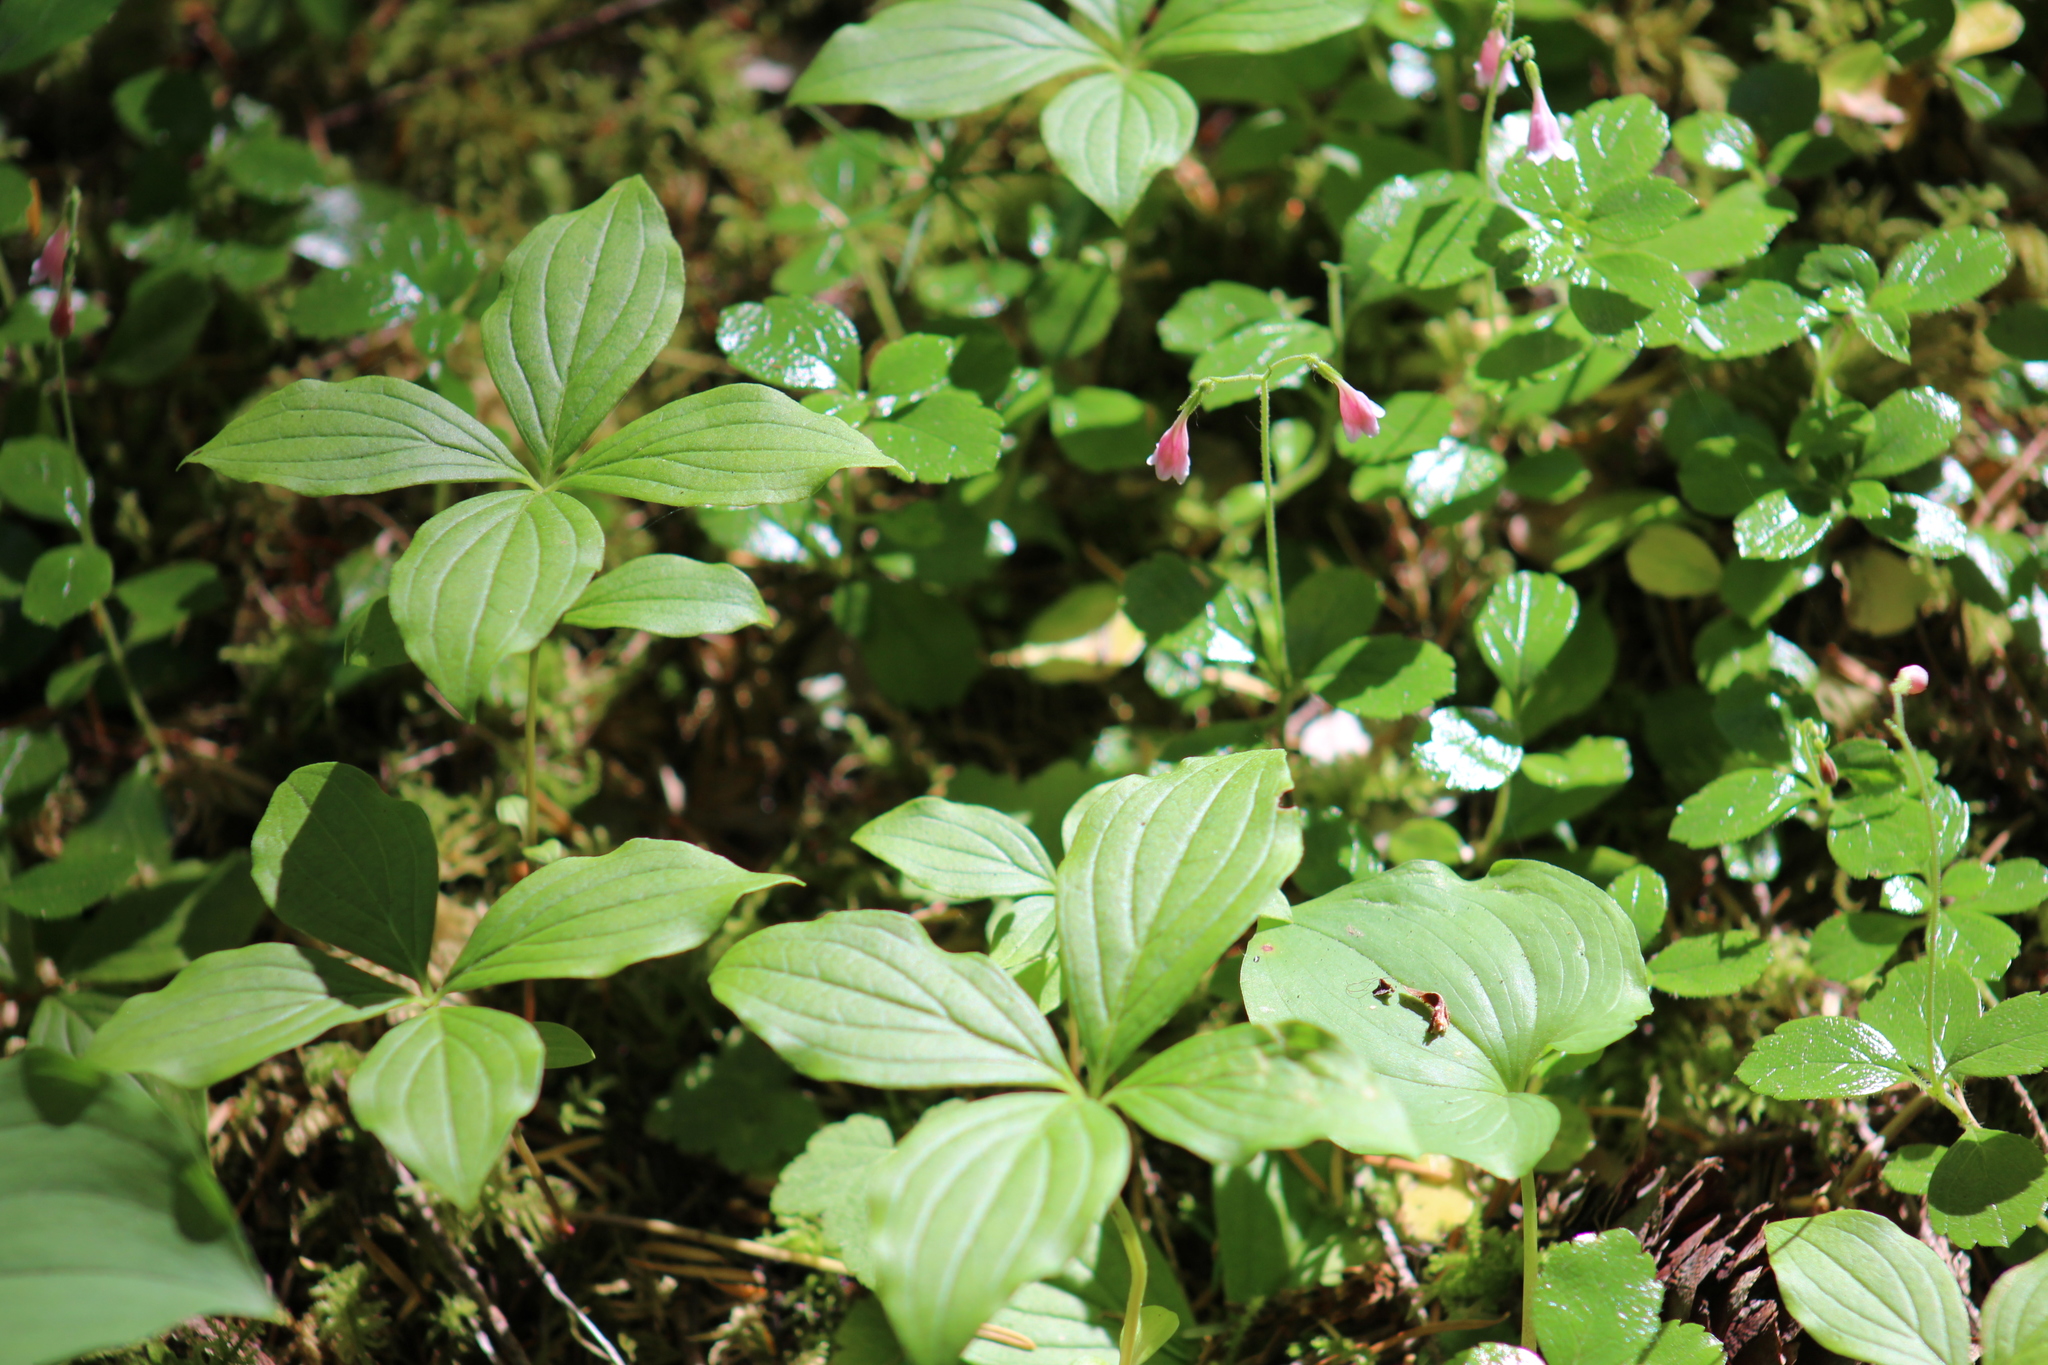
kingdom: Plantae
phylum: Tracheophyta
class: Magnoliopsida
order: Cornales
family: Cornaceae
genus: Cornus
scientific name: Cornus unalaschkensis
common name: Alaska bunchberry
